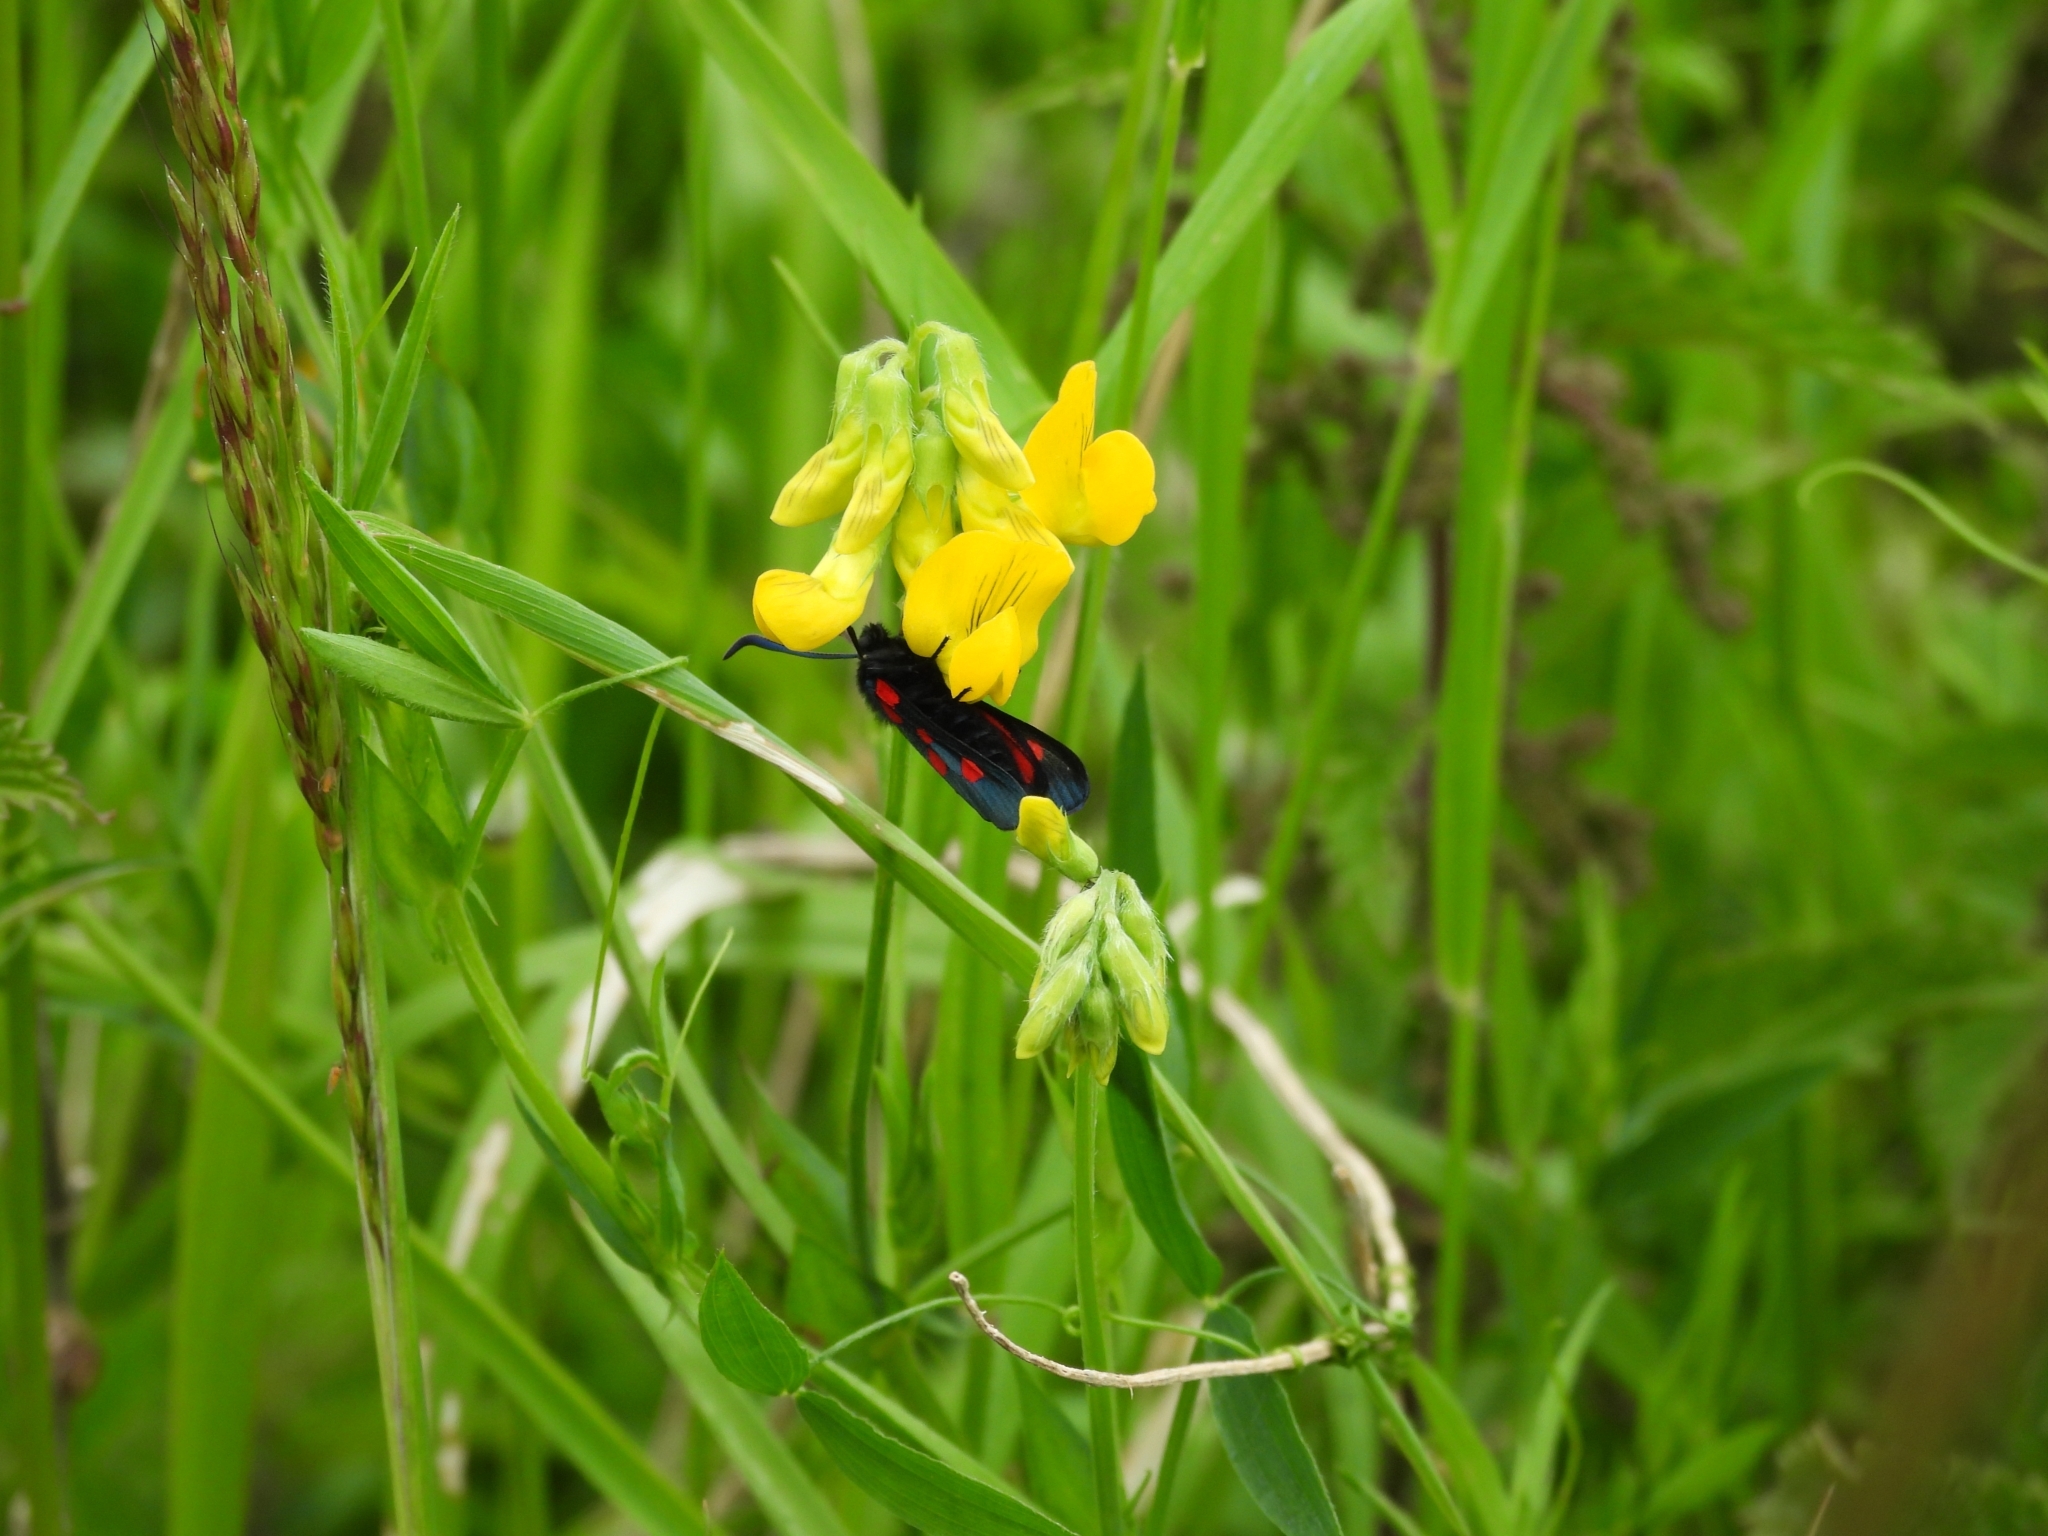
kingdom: Animalia
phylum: Arthropoda
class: Insecta
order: Lepidoptera
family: Zygaenidae
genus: Zygaena
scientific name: Zygaena lonicerae
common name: Narrow-bordered five-spot burnet
